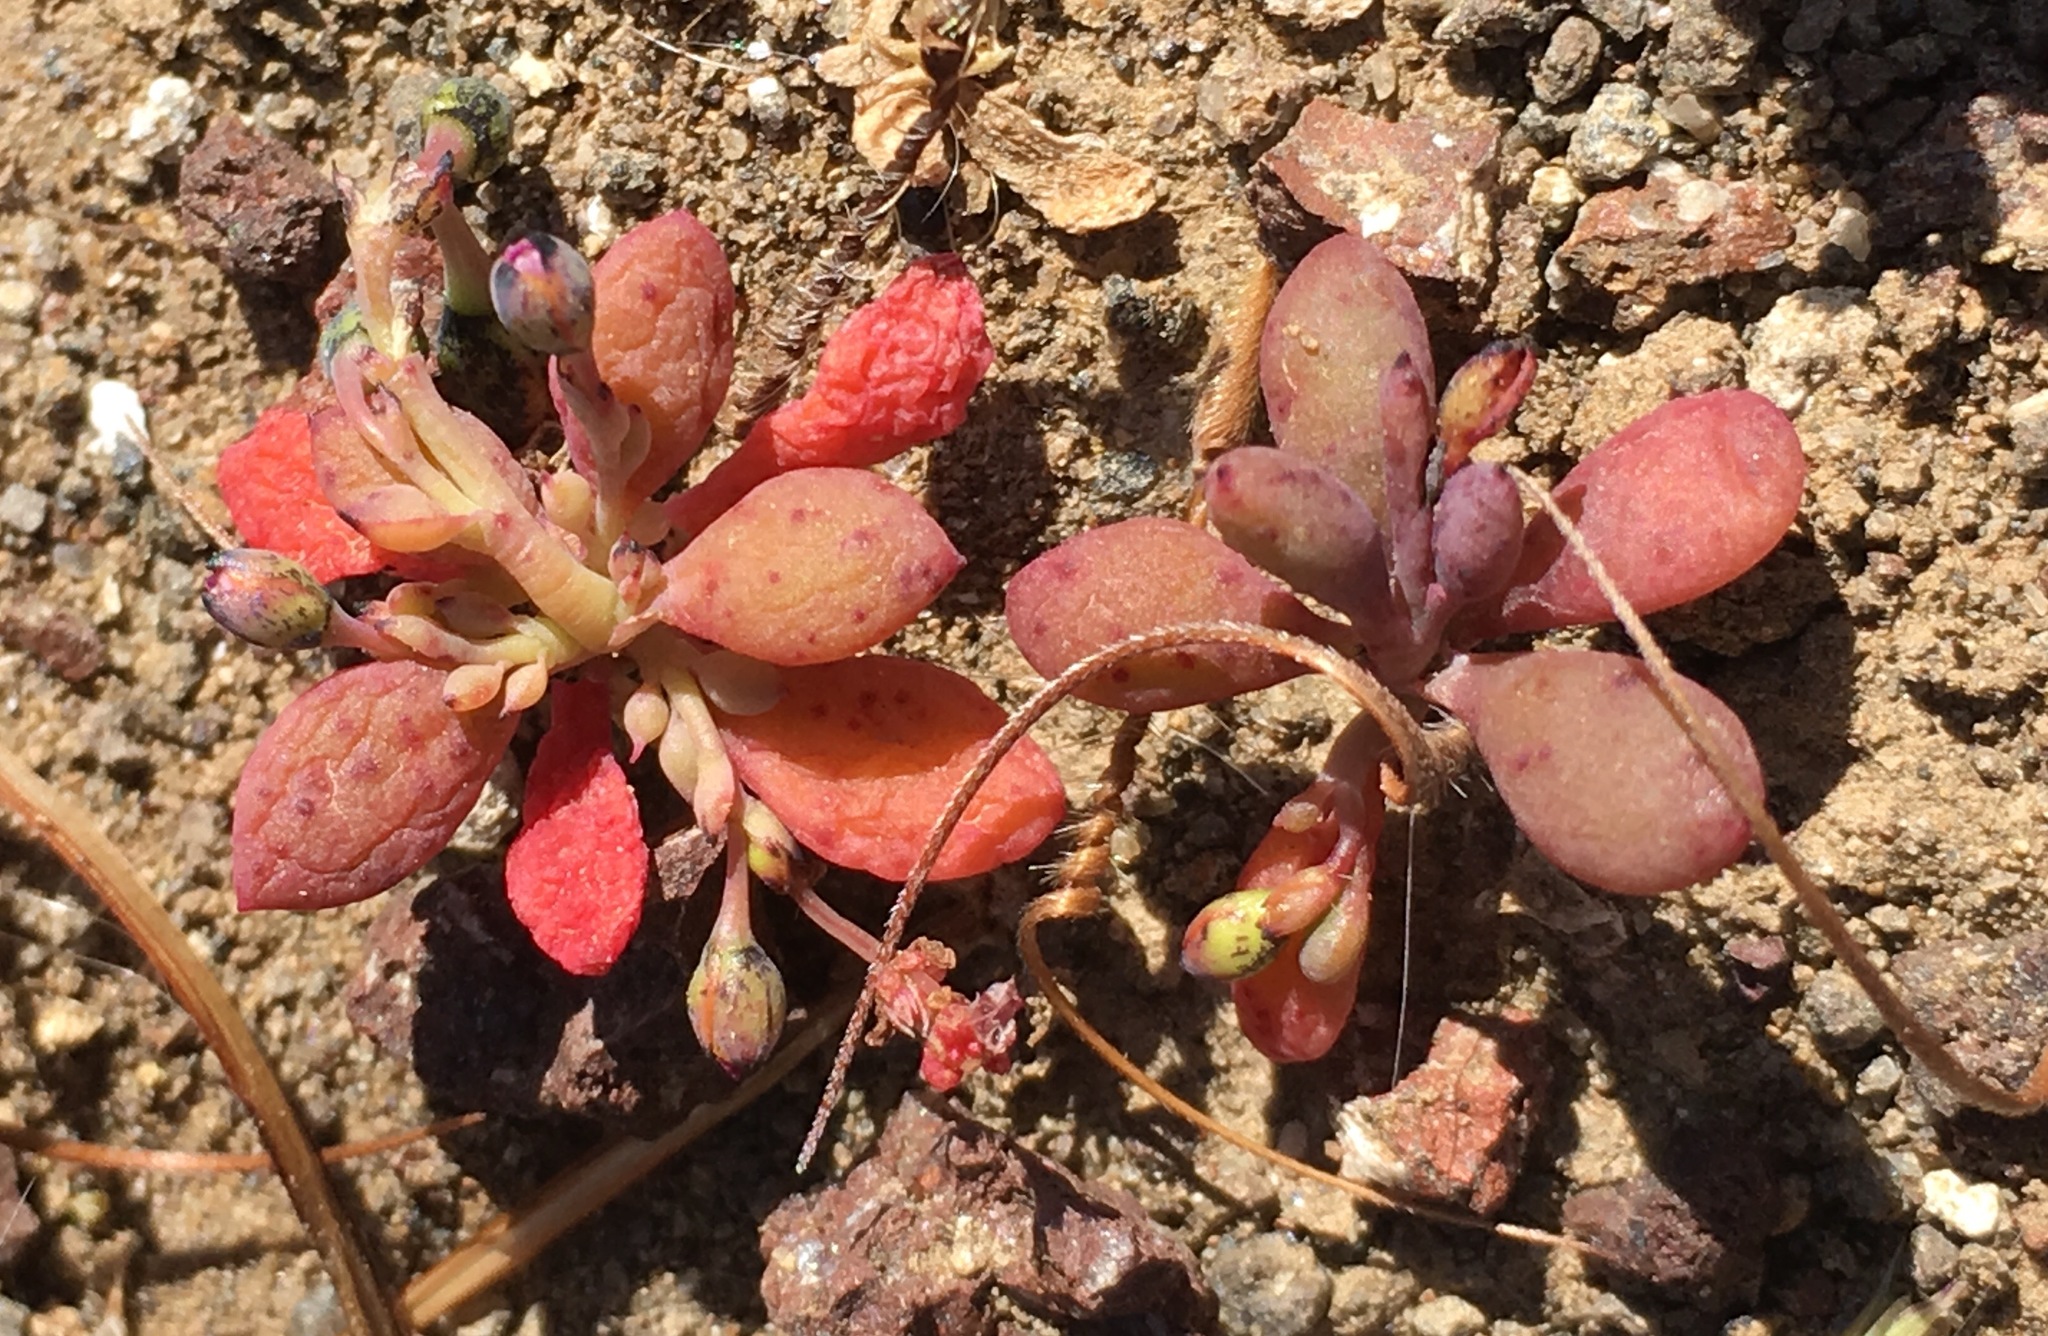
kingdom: Plantae
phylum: Tracheophyta
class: Magnoliopsida
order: Caryophyllales
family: Montiaceae
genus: Cistanthe
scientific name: Cistanthe maritima
